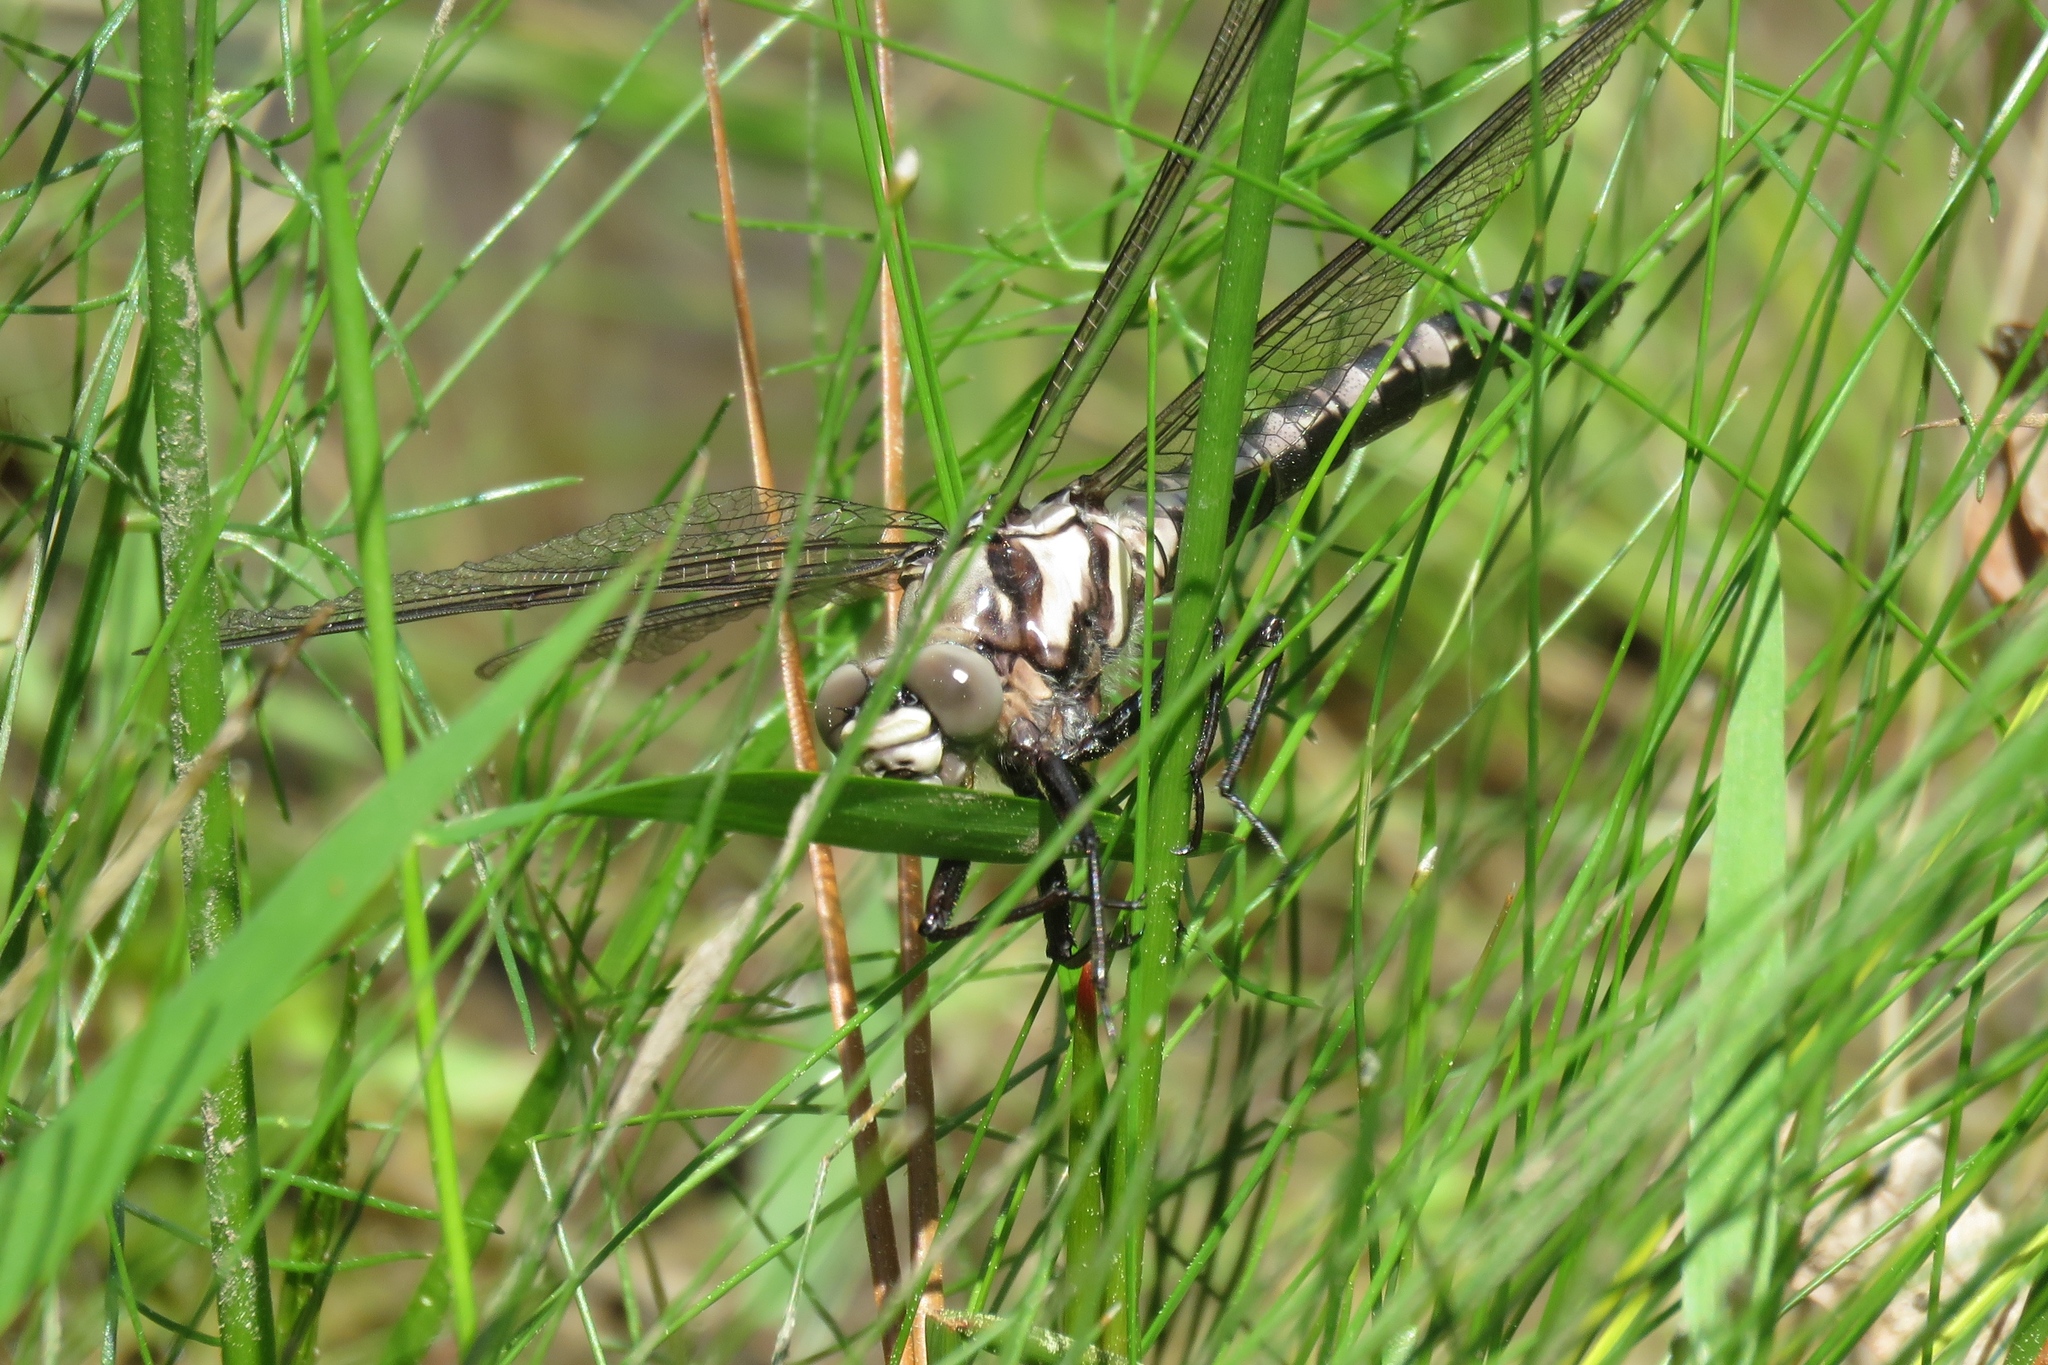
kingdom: Animalia
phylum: Arthropoda
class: Insecta
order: Odonata
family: Petaluridae
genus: Tachopteryx
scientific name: Tachopteryx thoreyi
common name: Gray petaltail
